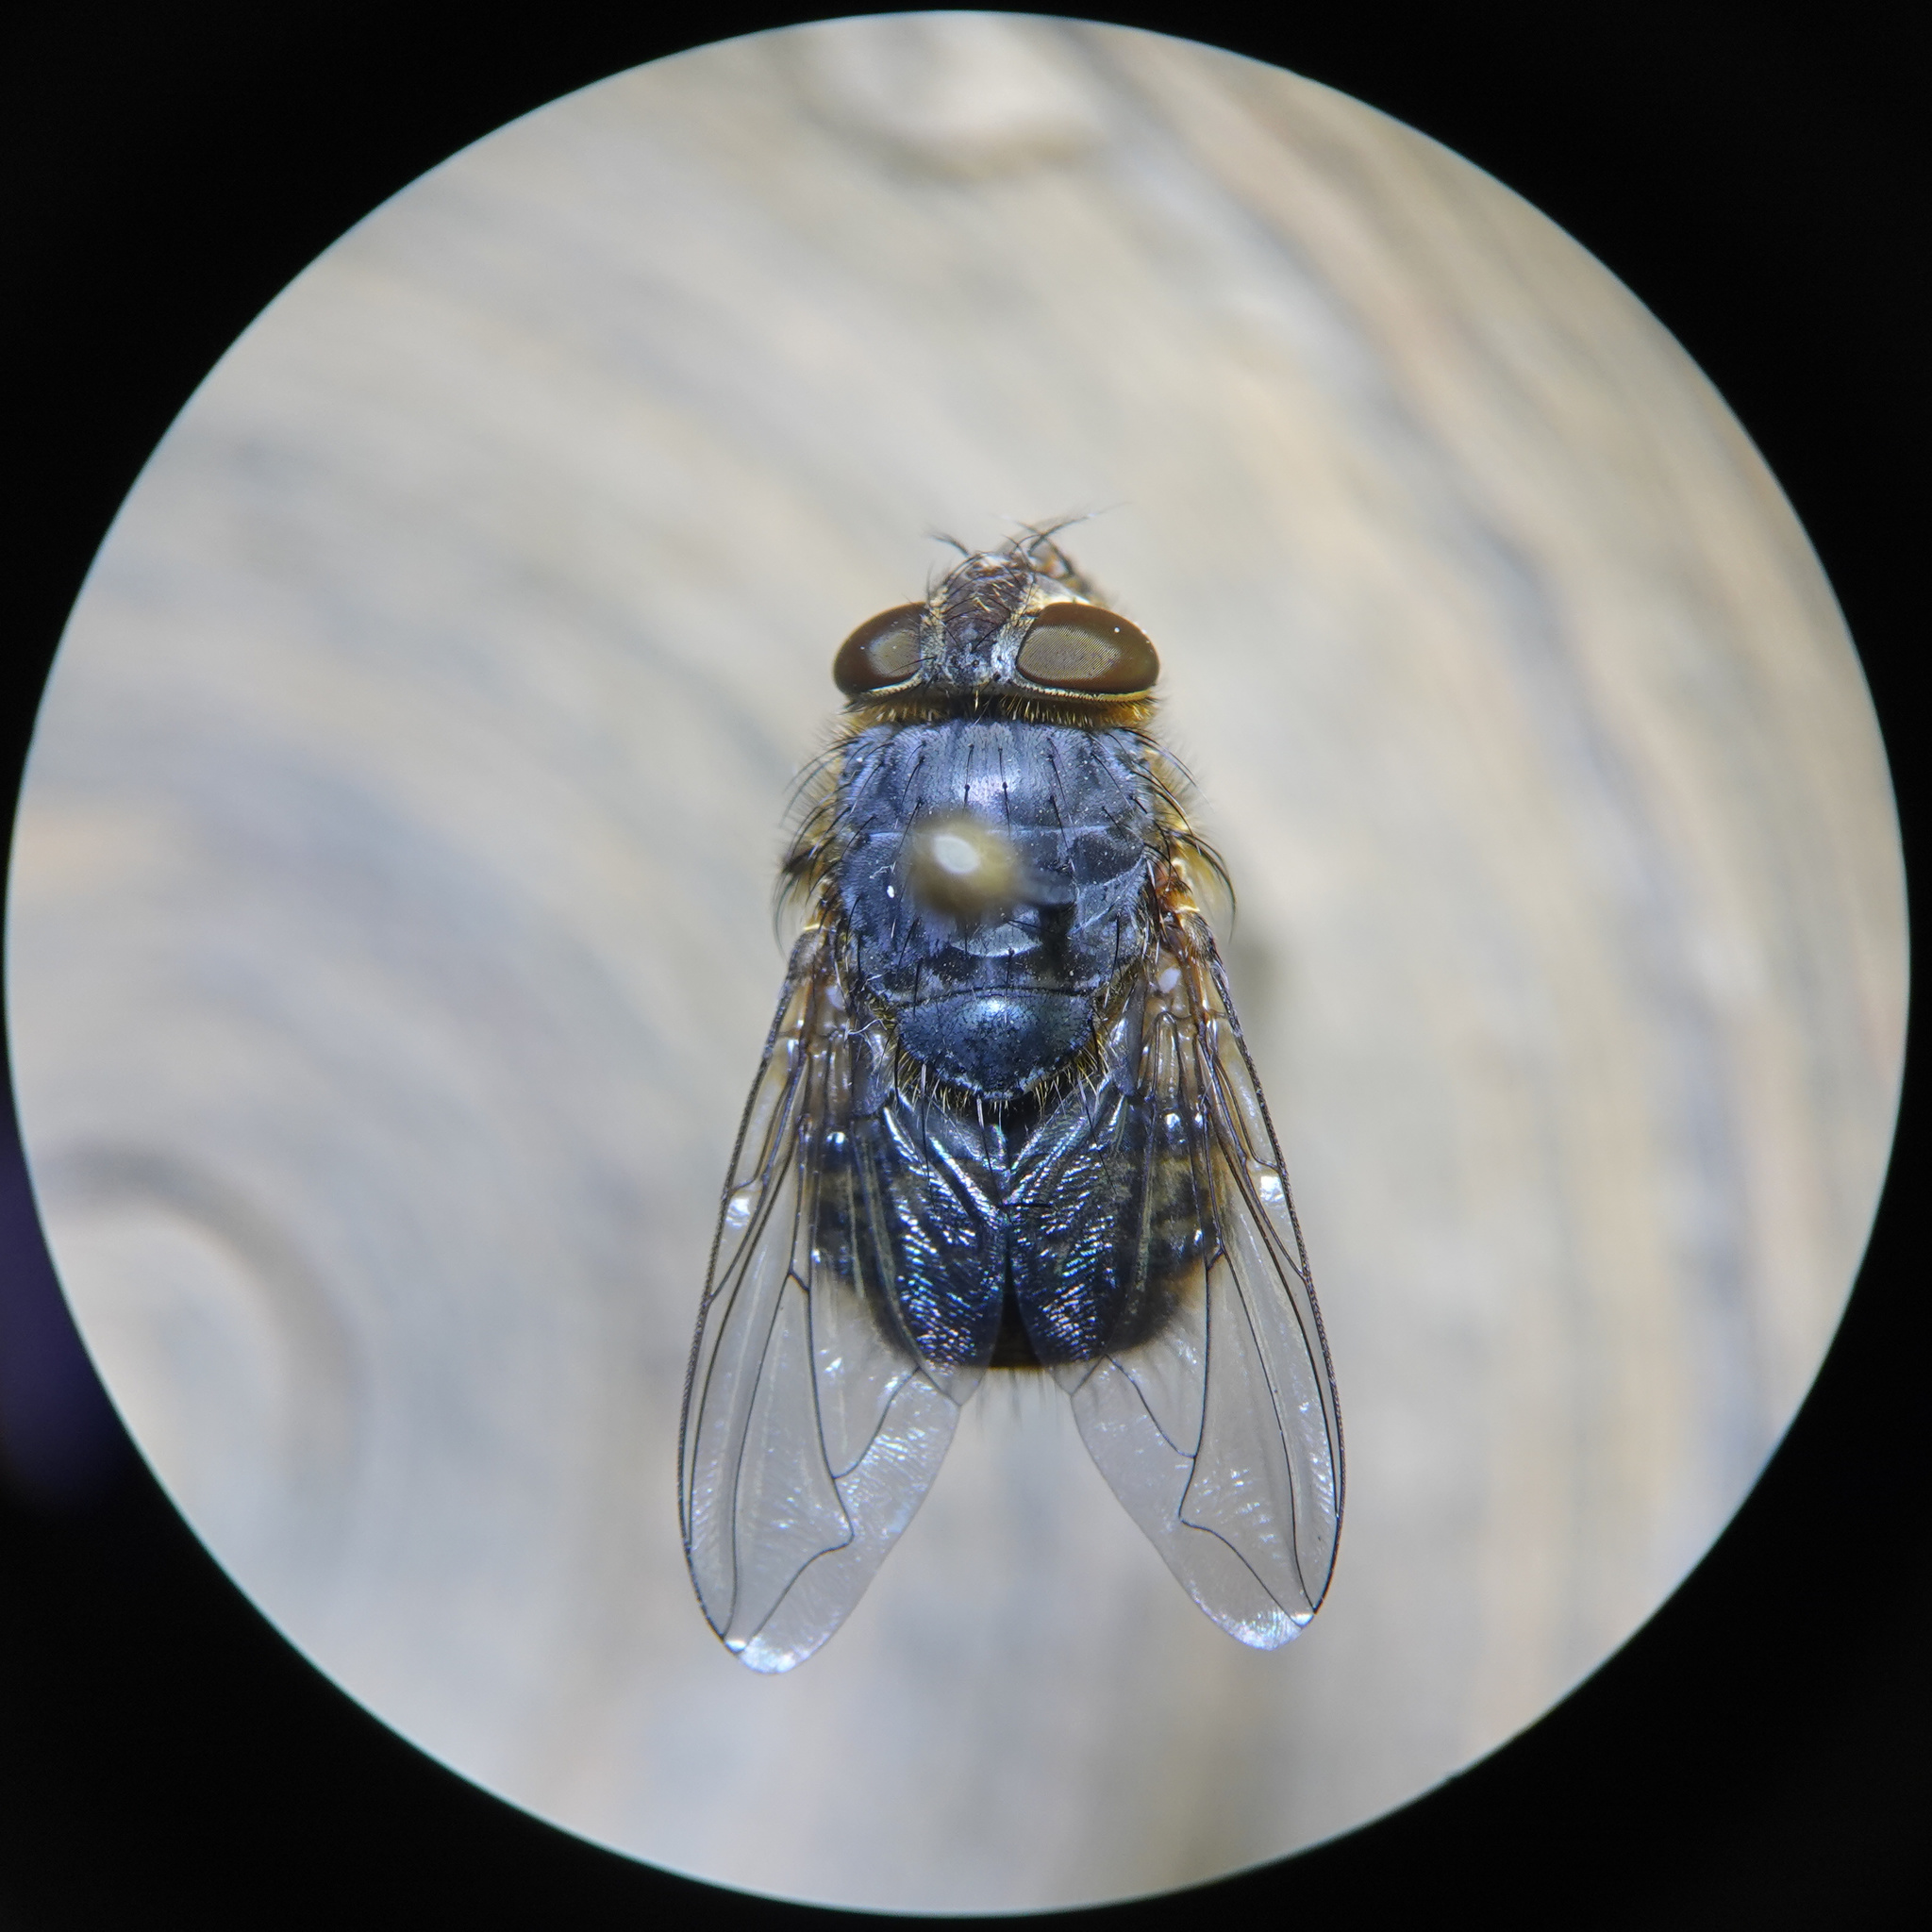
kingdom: Animalia
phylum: Arthropoda
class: Insecta
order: Diptera
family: Calliphoridae
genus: Calliphora
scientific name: Calliphora hilli
